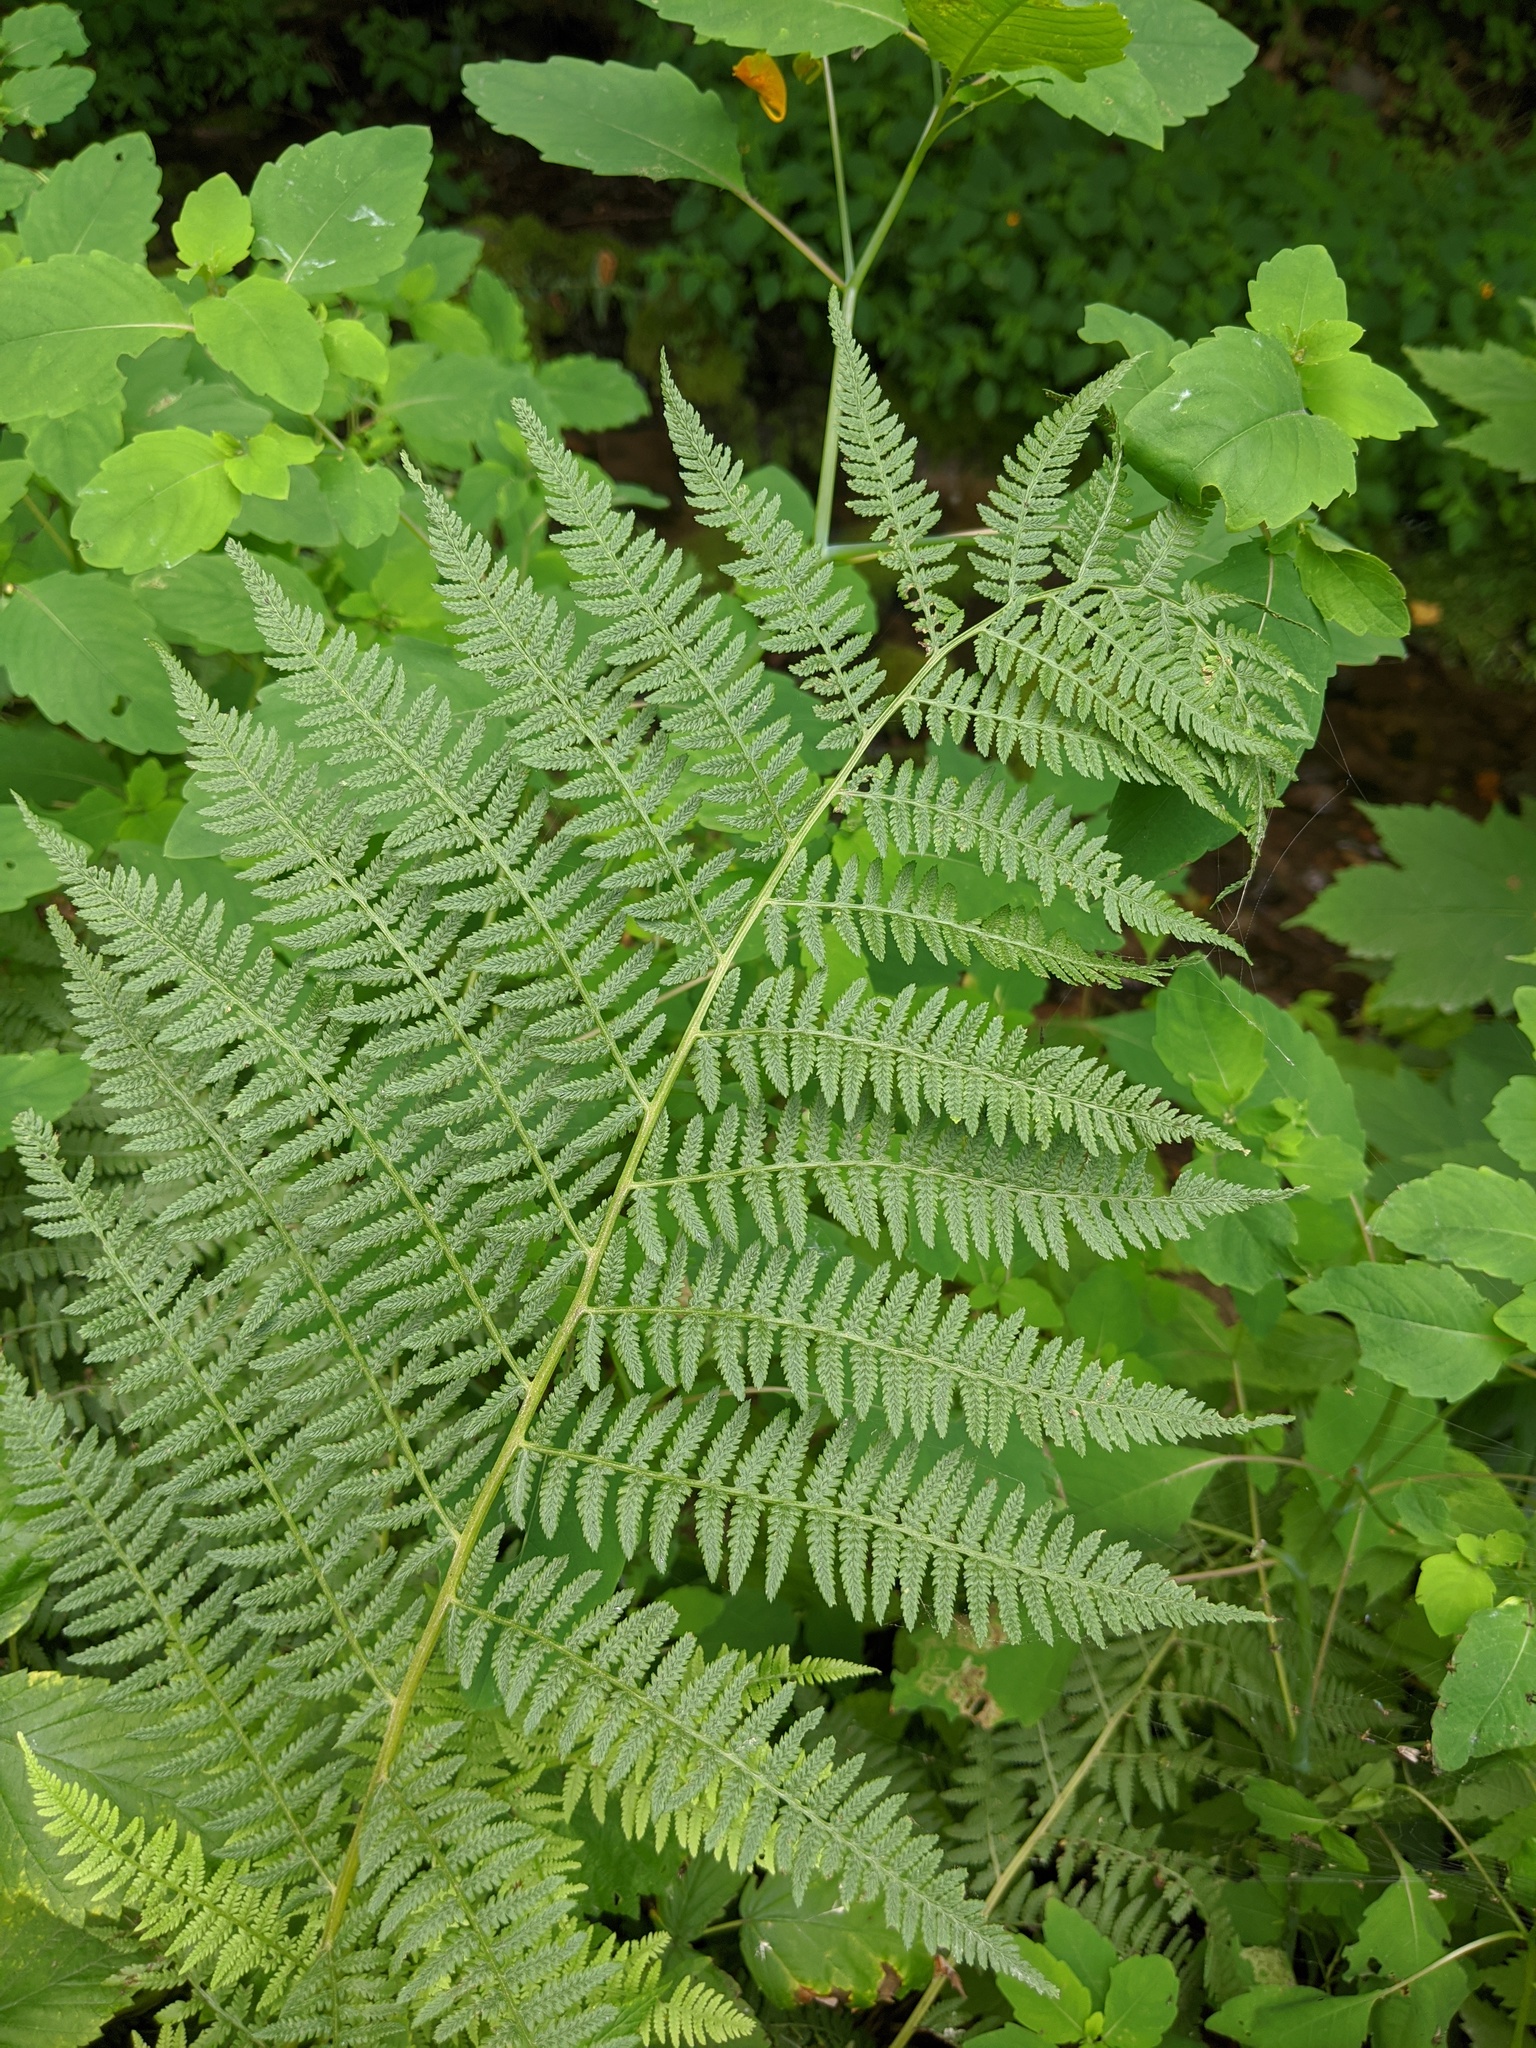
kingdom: Plantae
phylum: Tracheophyta
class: Polypodiopsida
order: Polypodiales
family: Athyriaceae
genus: Athyrium
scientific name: Athyrium angustum
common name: Northern lady fern
